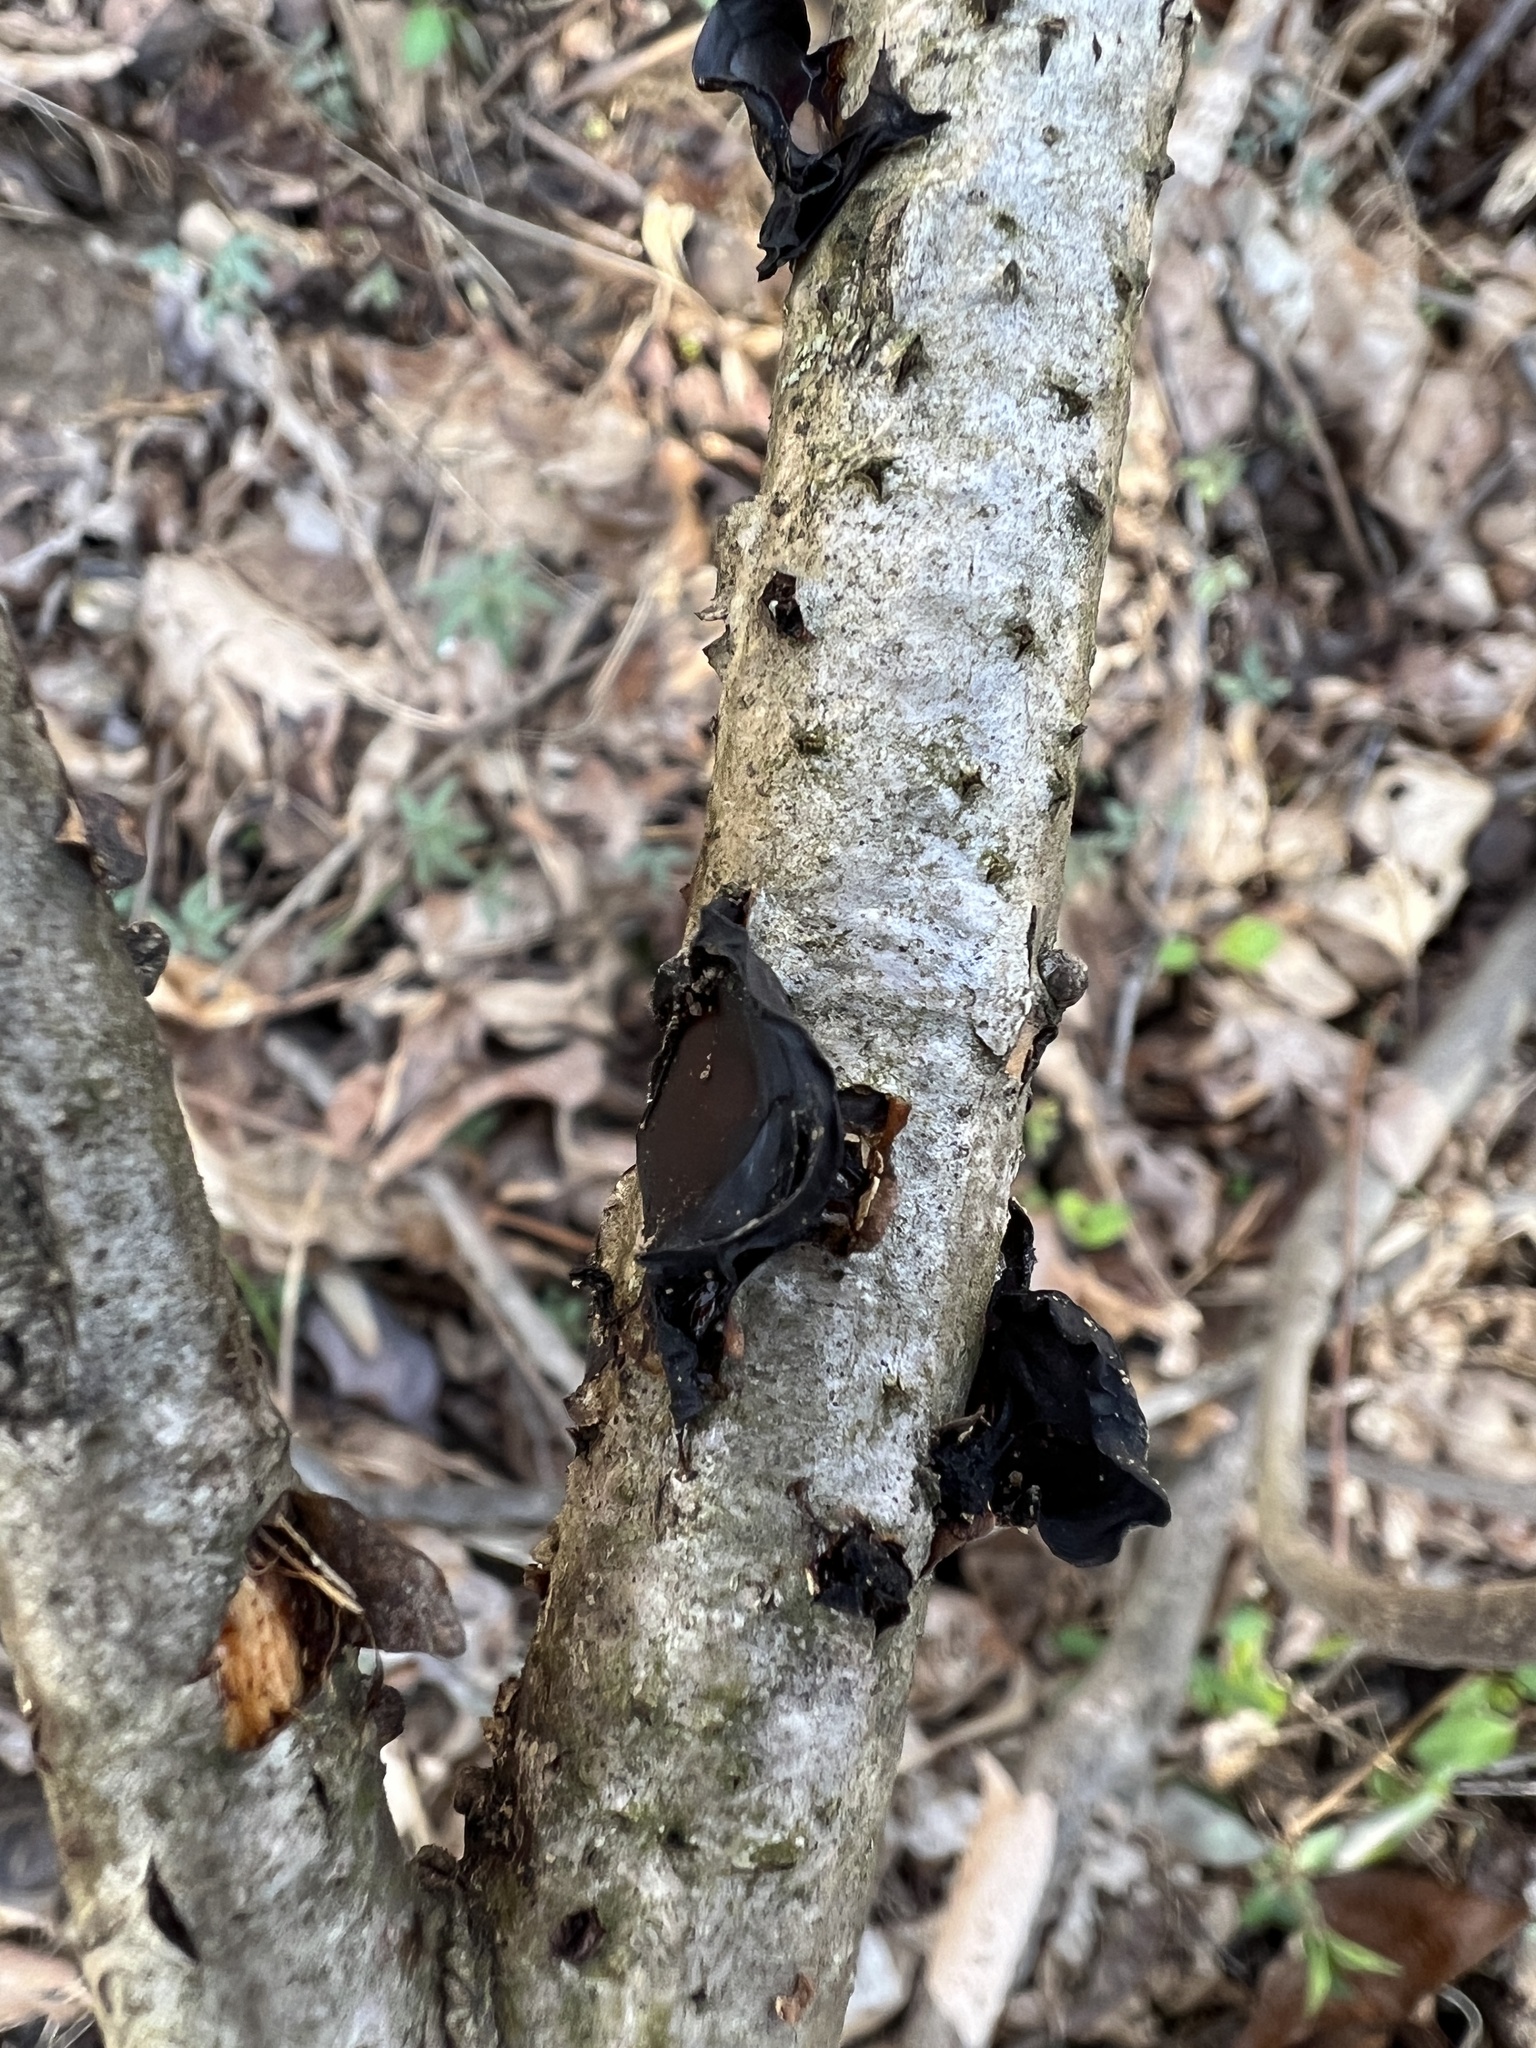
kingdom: Fungi
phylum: Basidiomycota
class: Agaricomycetes
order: Auriculariales
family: Auriculariaceae
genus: Exidia
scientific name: Exidia
